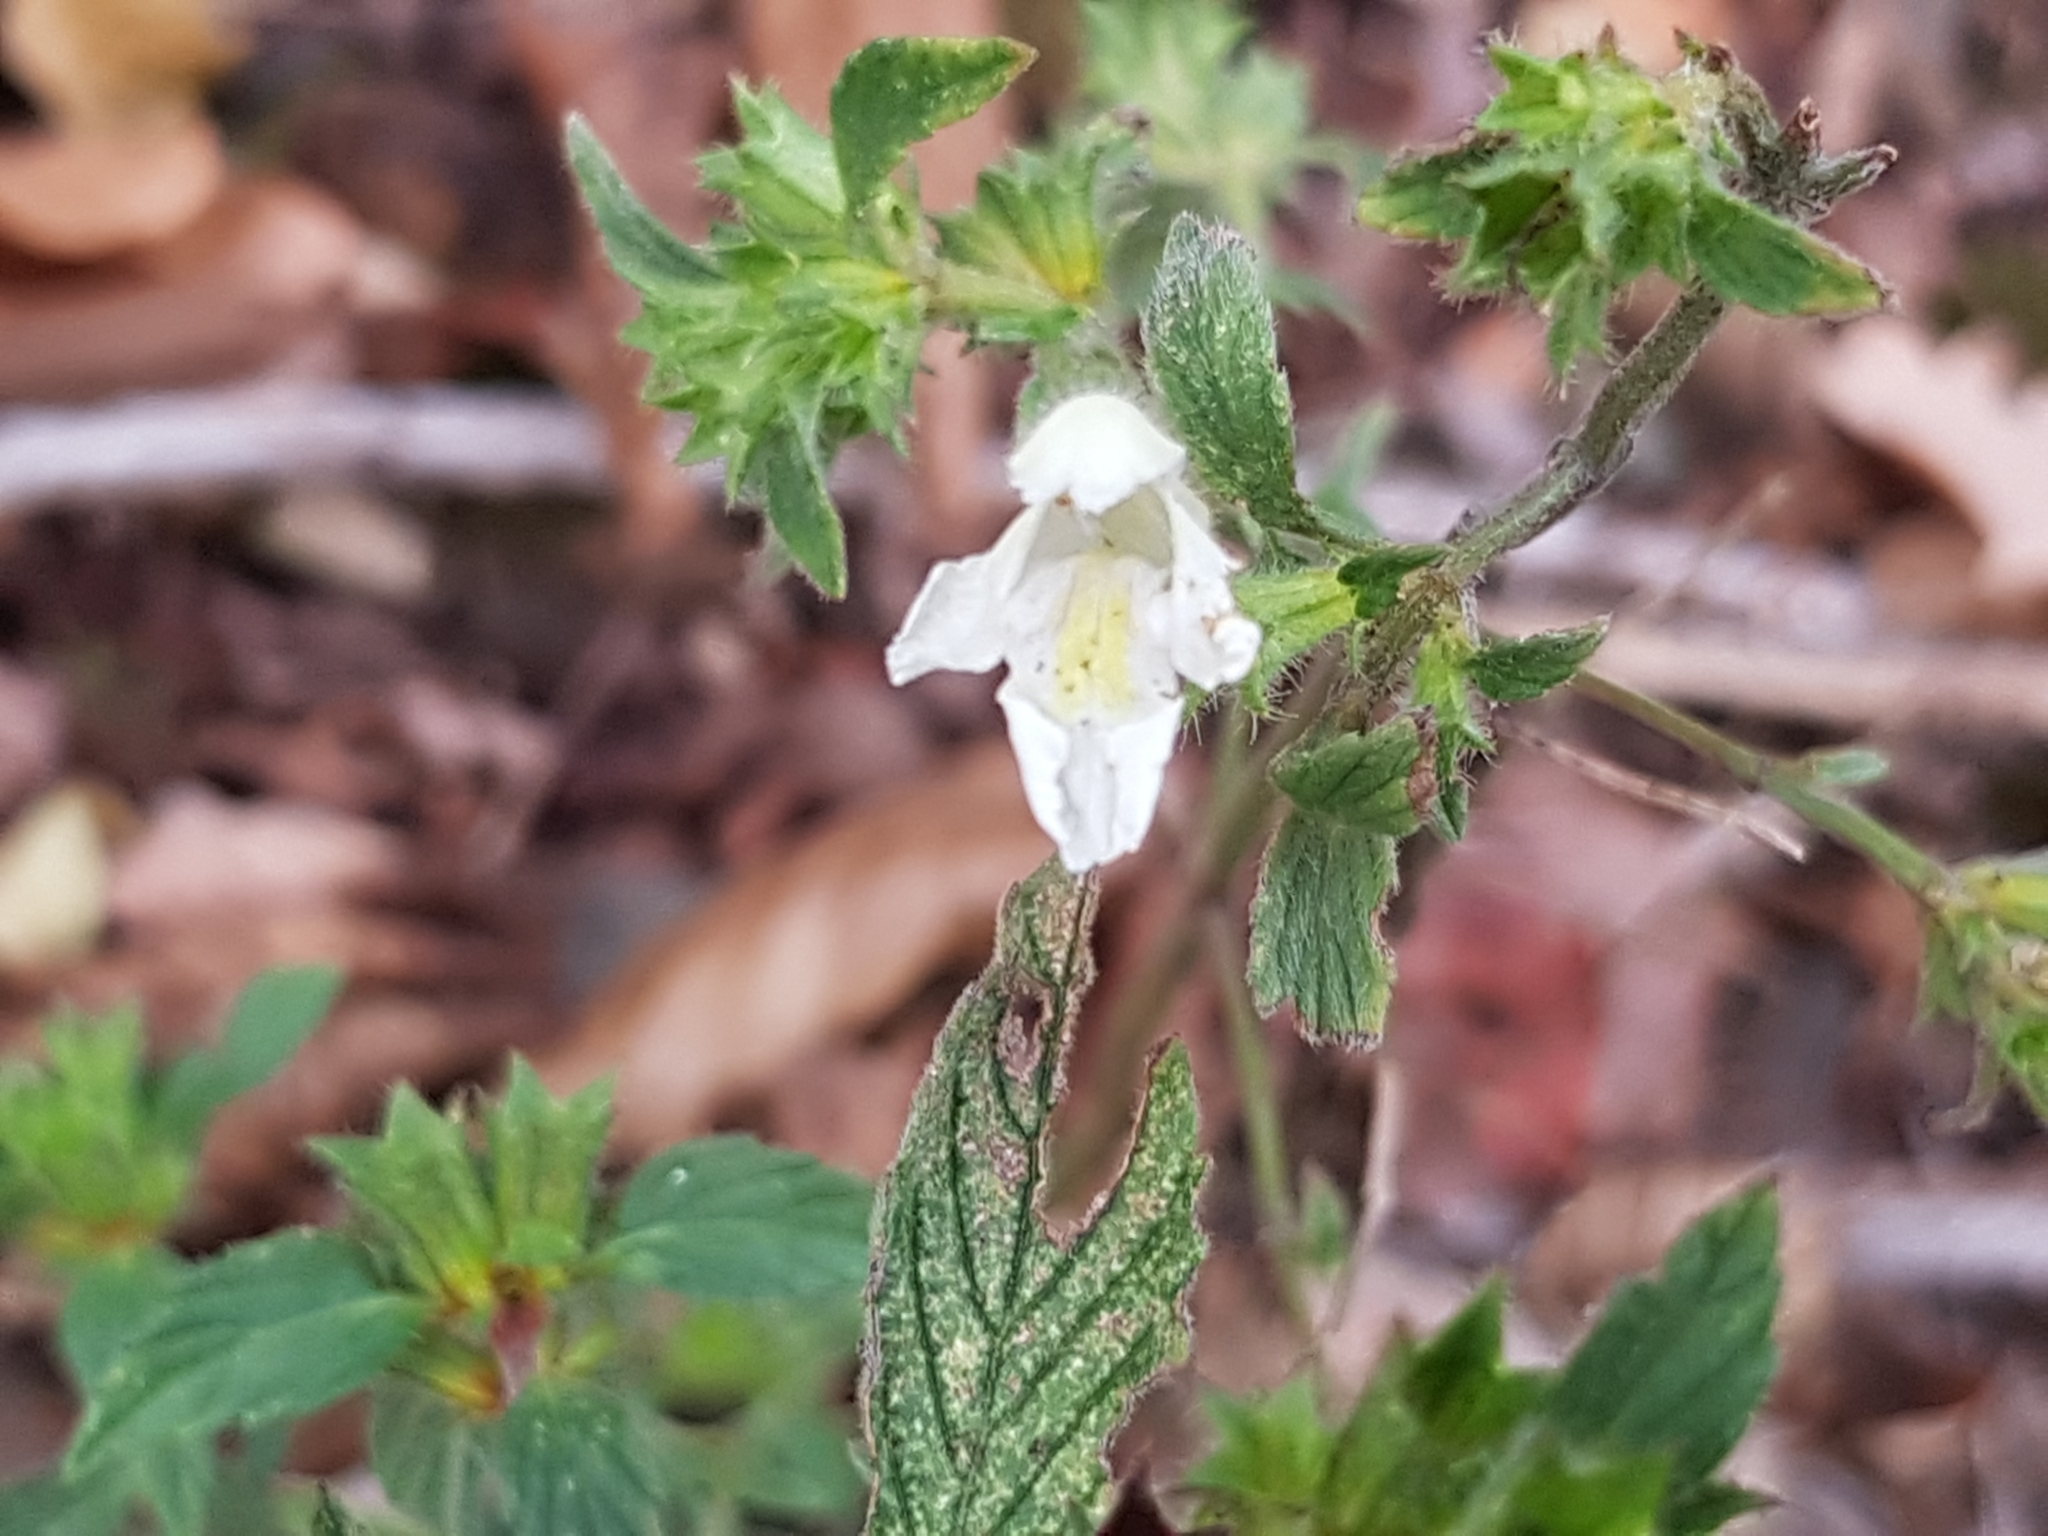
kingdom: Plantae
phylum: Tracheophyta
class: Magnoliopsida
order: Lamiales
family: Lamiaceae
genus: Galeopsis
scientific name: Galeopsis segetum
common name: Downy hemp-nettle
